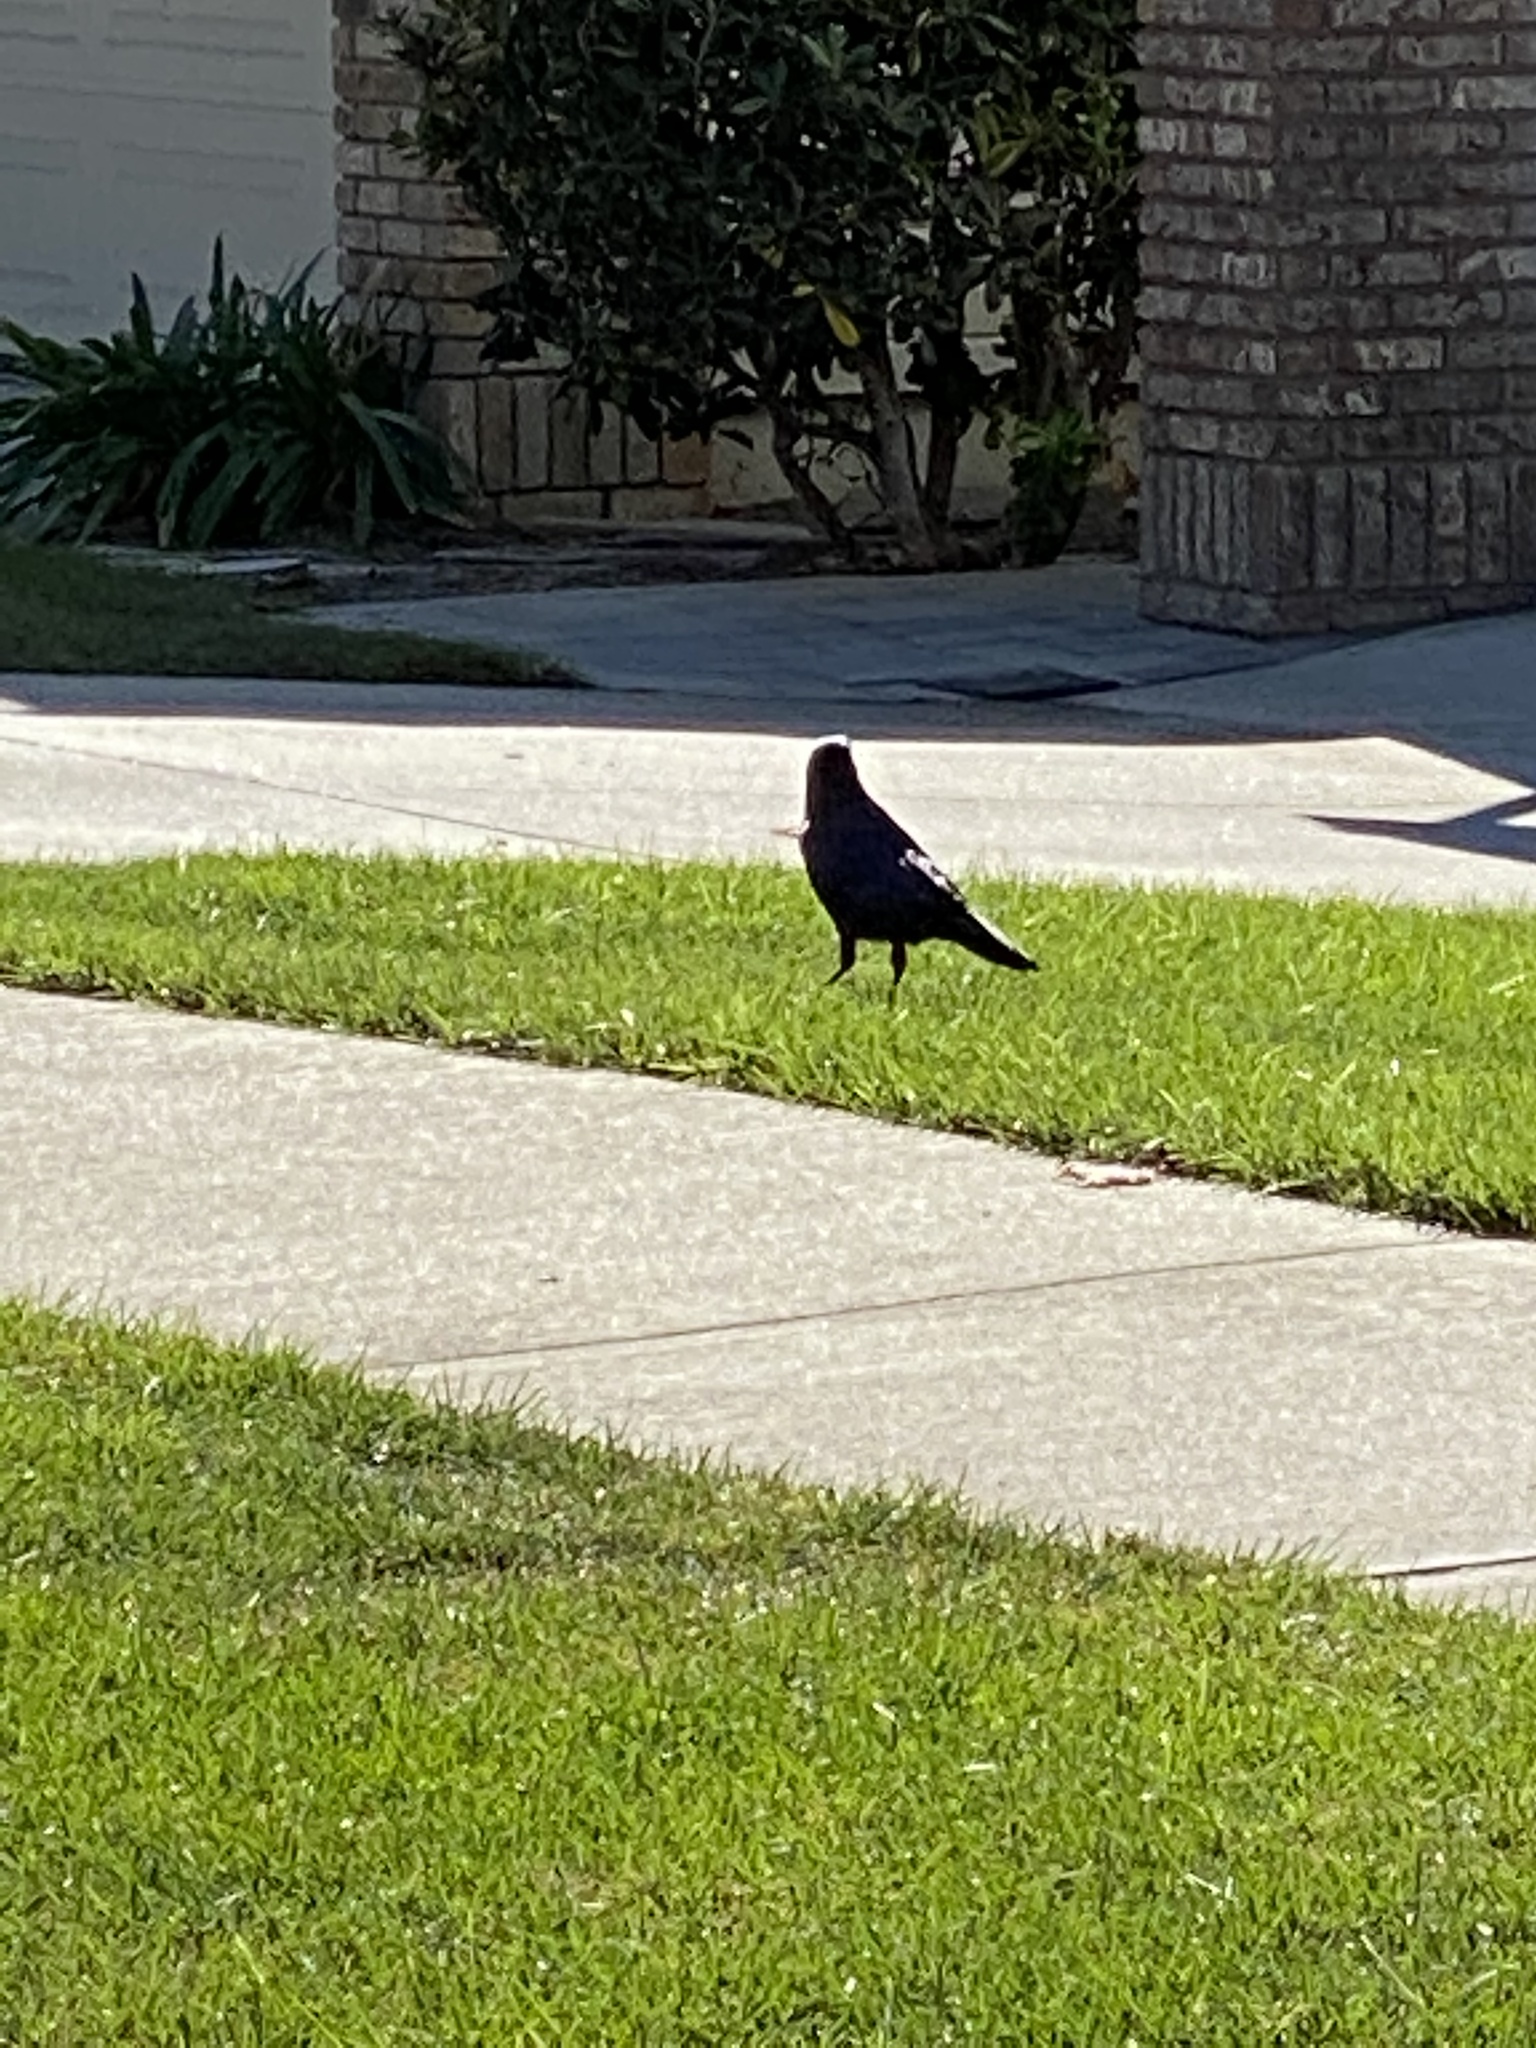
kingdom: Animalia
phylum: Chordata
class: Aves
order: Passeriformes
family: Corvidae
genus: Corvus
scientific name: Corvus brachyrhynchos
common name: American crow
